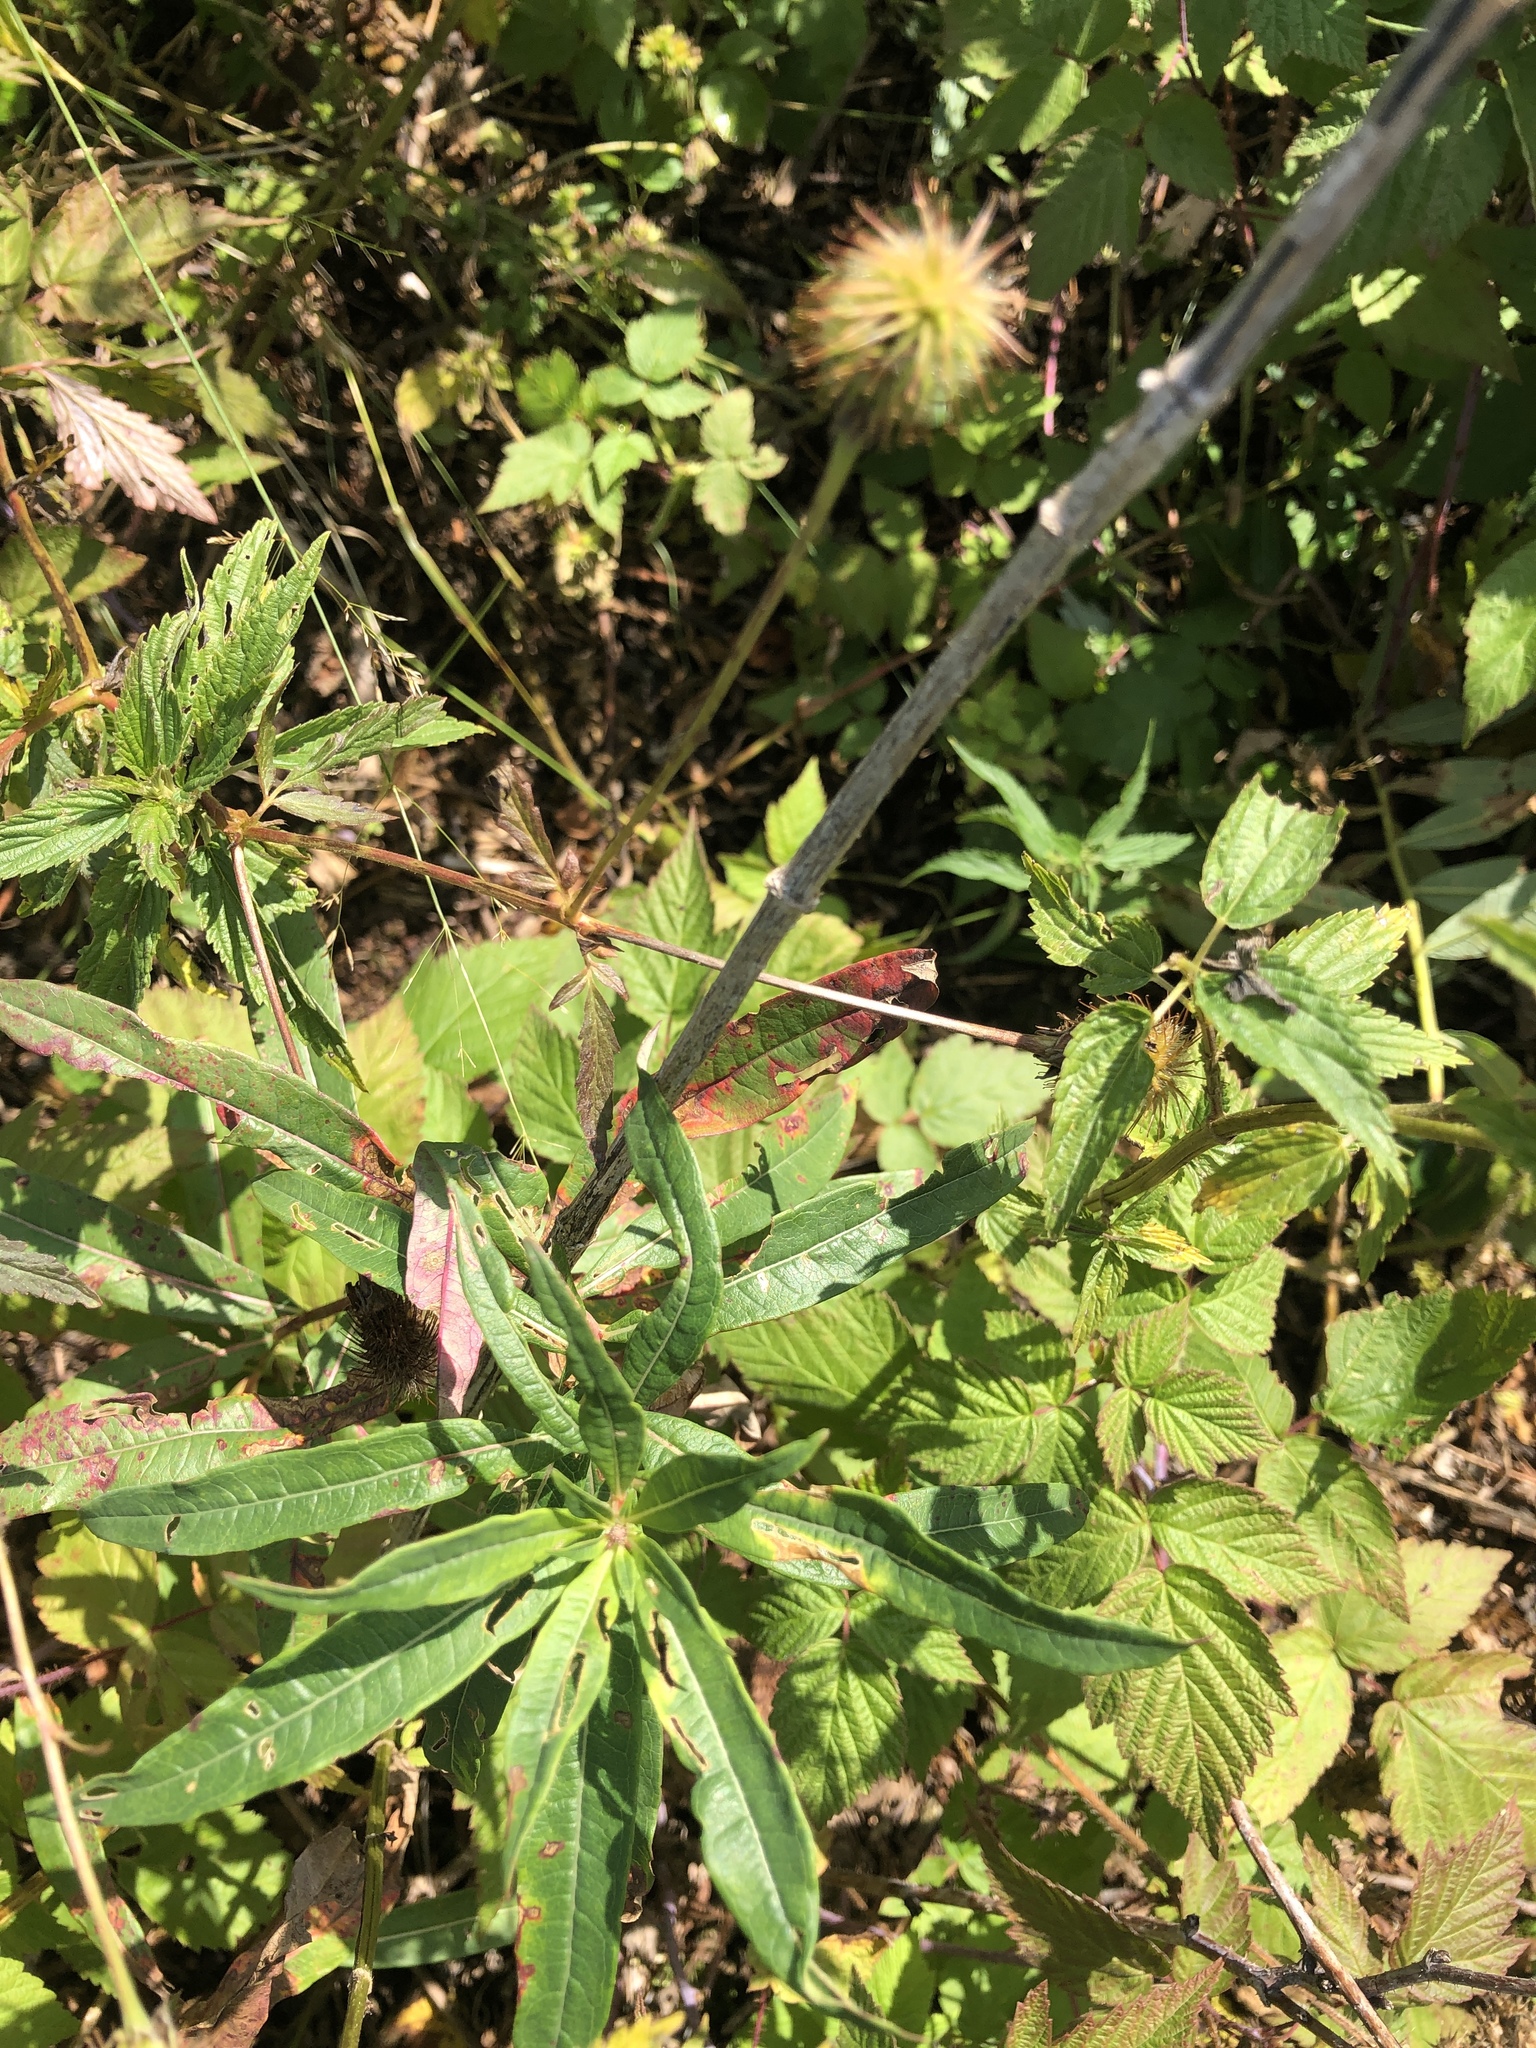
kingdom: Plantae
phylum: Tracheophyta
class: Magnoliopsida
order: Rosales
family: Rosaceae
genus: Geum
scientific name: Geum rivale
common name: Water avens
